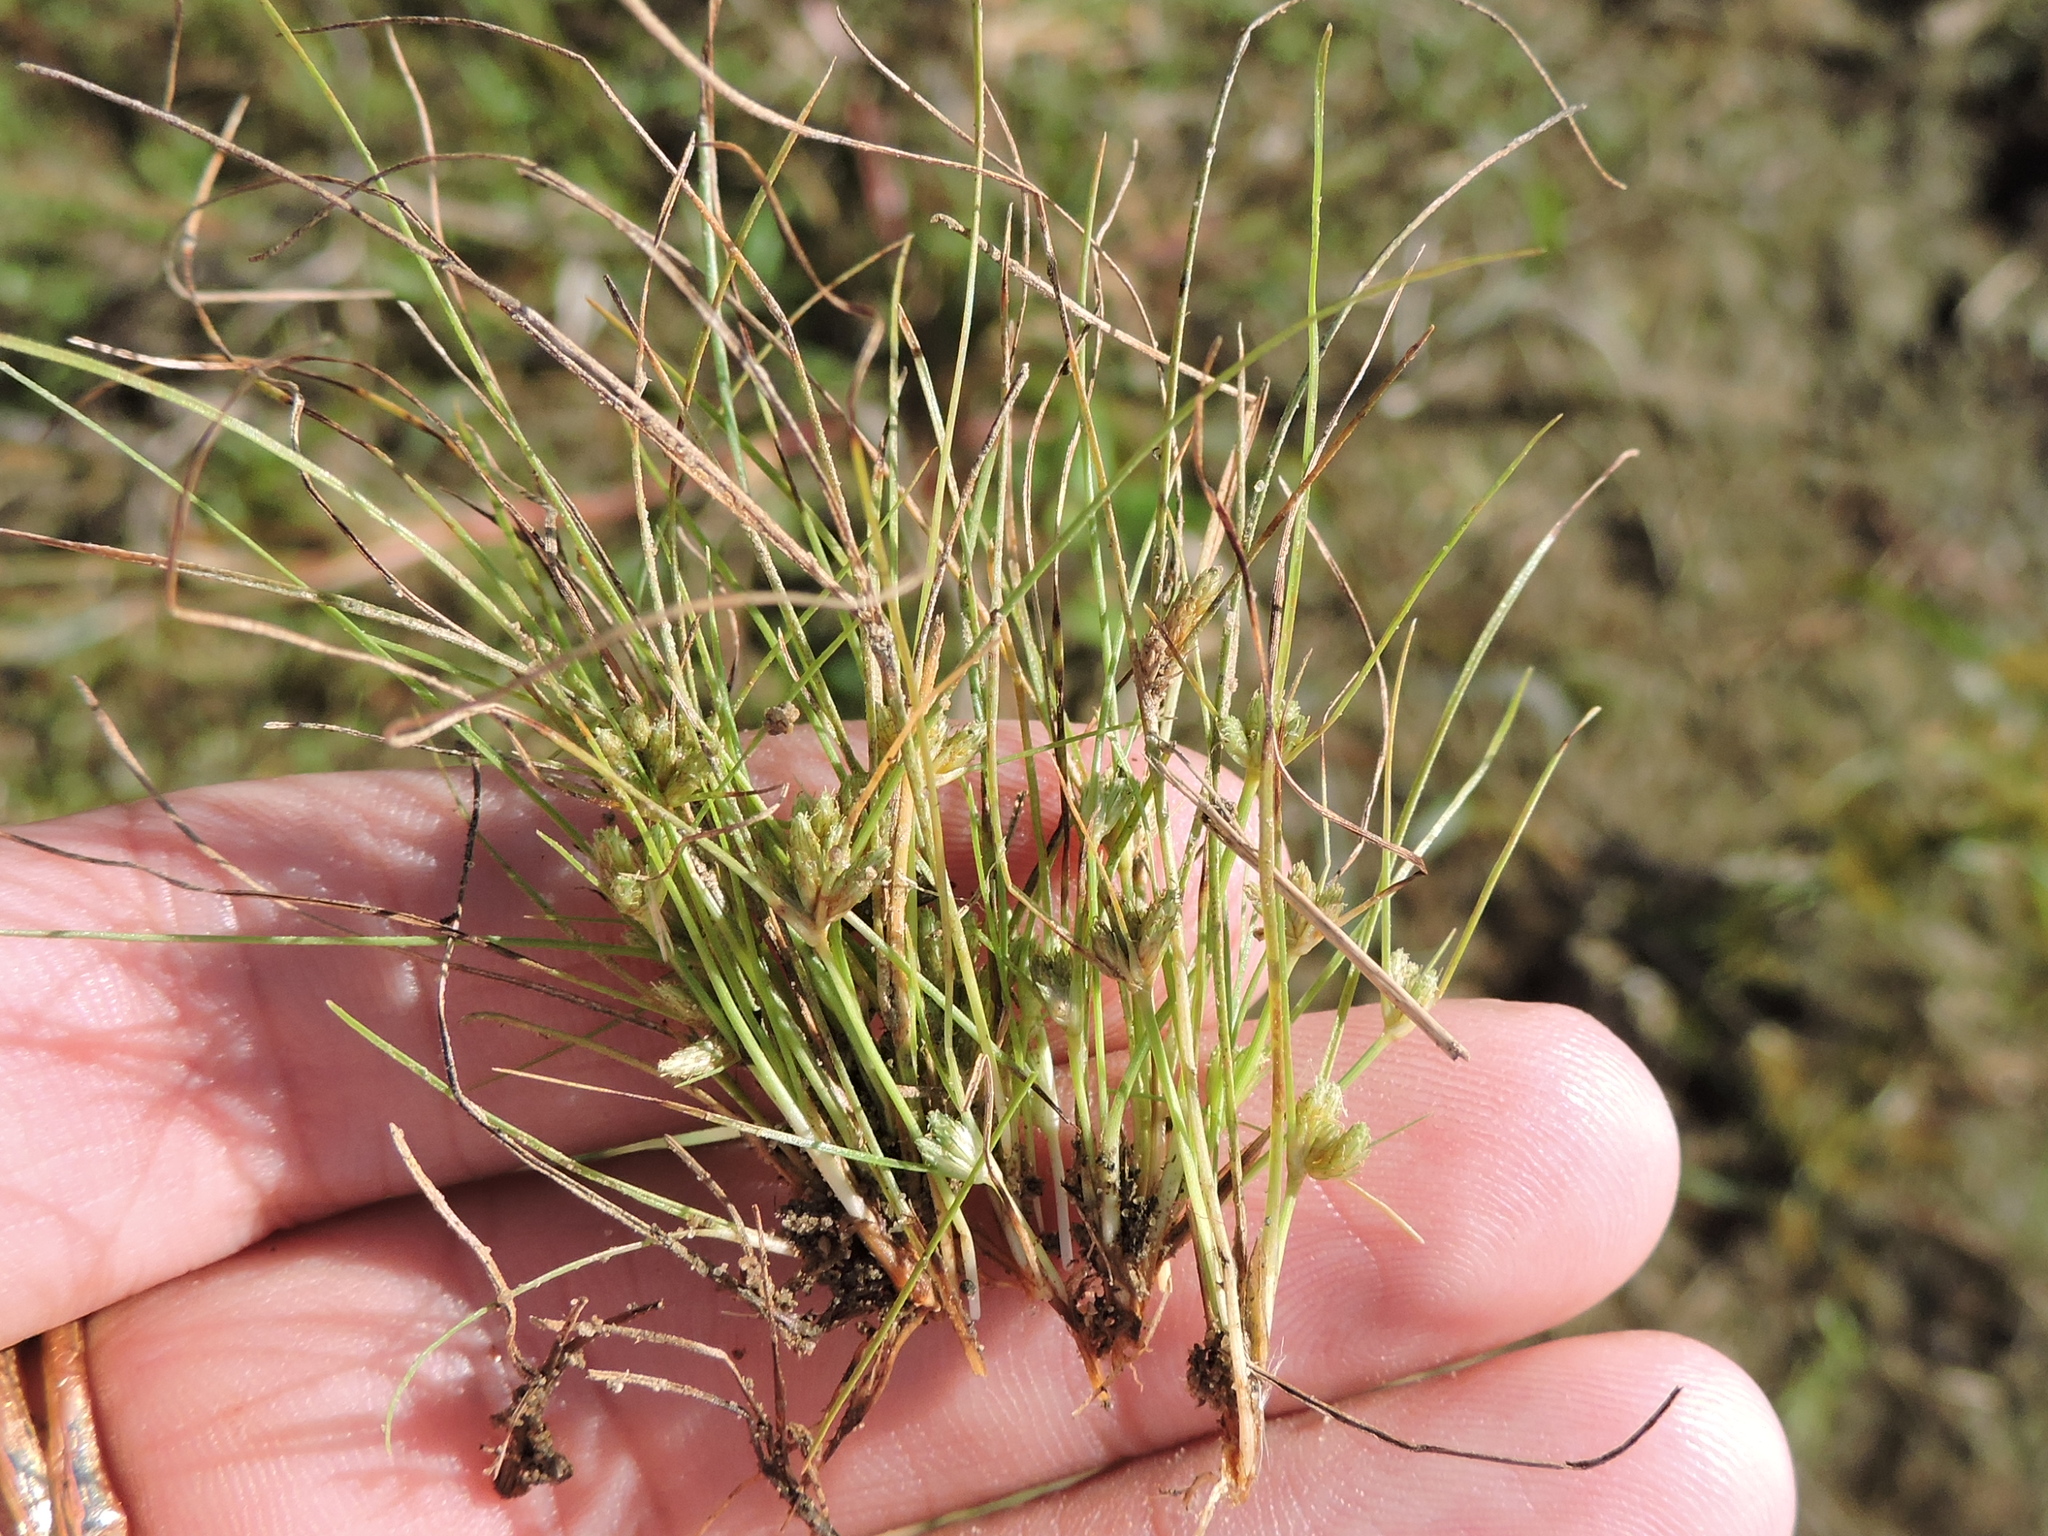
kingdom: Plantae
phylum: Tracheophyta
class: Liliopsida
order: Poales
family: Cyperaceae
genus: Fimbristylis
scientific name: Fimbristylis vahlii
